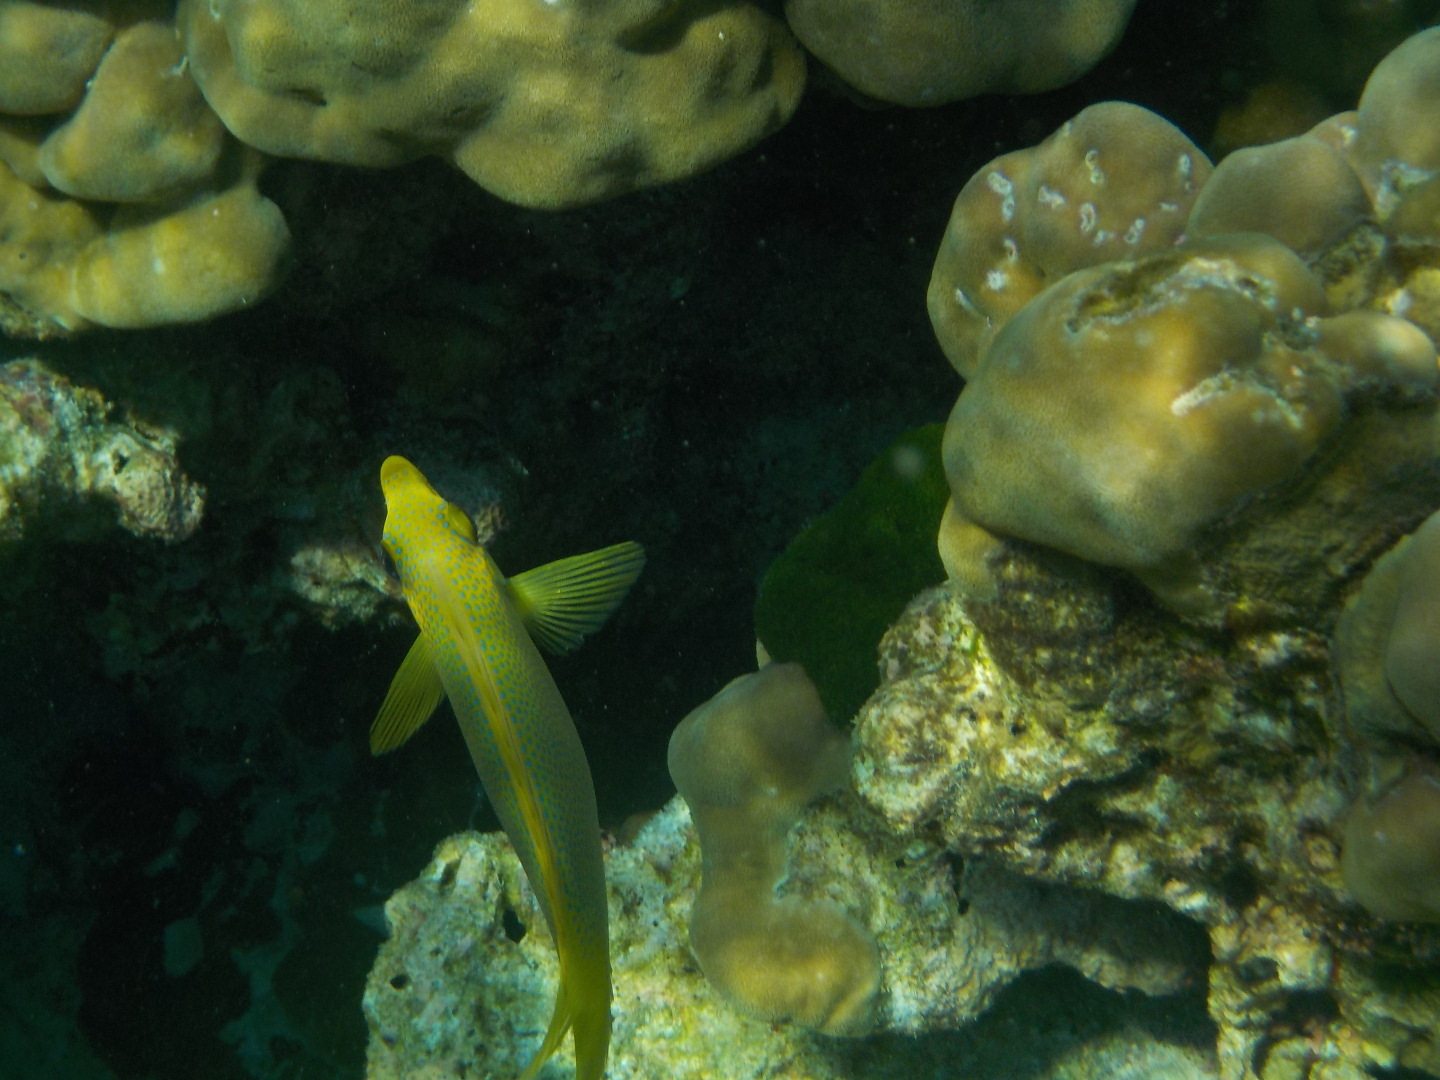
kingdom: Animalia
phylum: Chordata
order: Perciformes
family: Siganidae
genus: Siganus
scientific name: Siganus corallinus
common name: Coral rabbitfish
